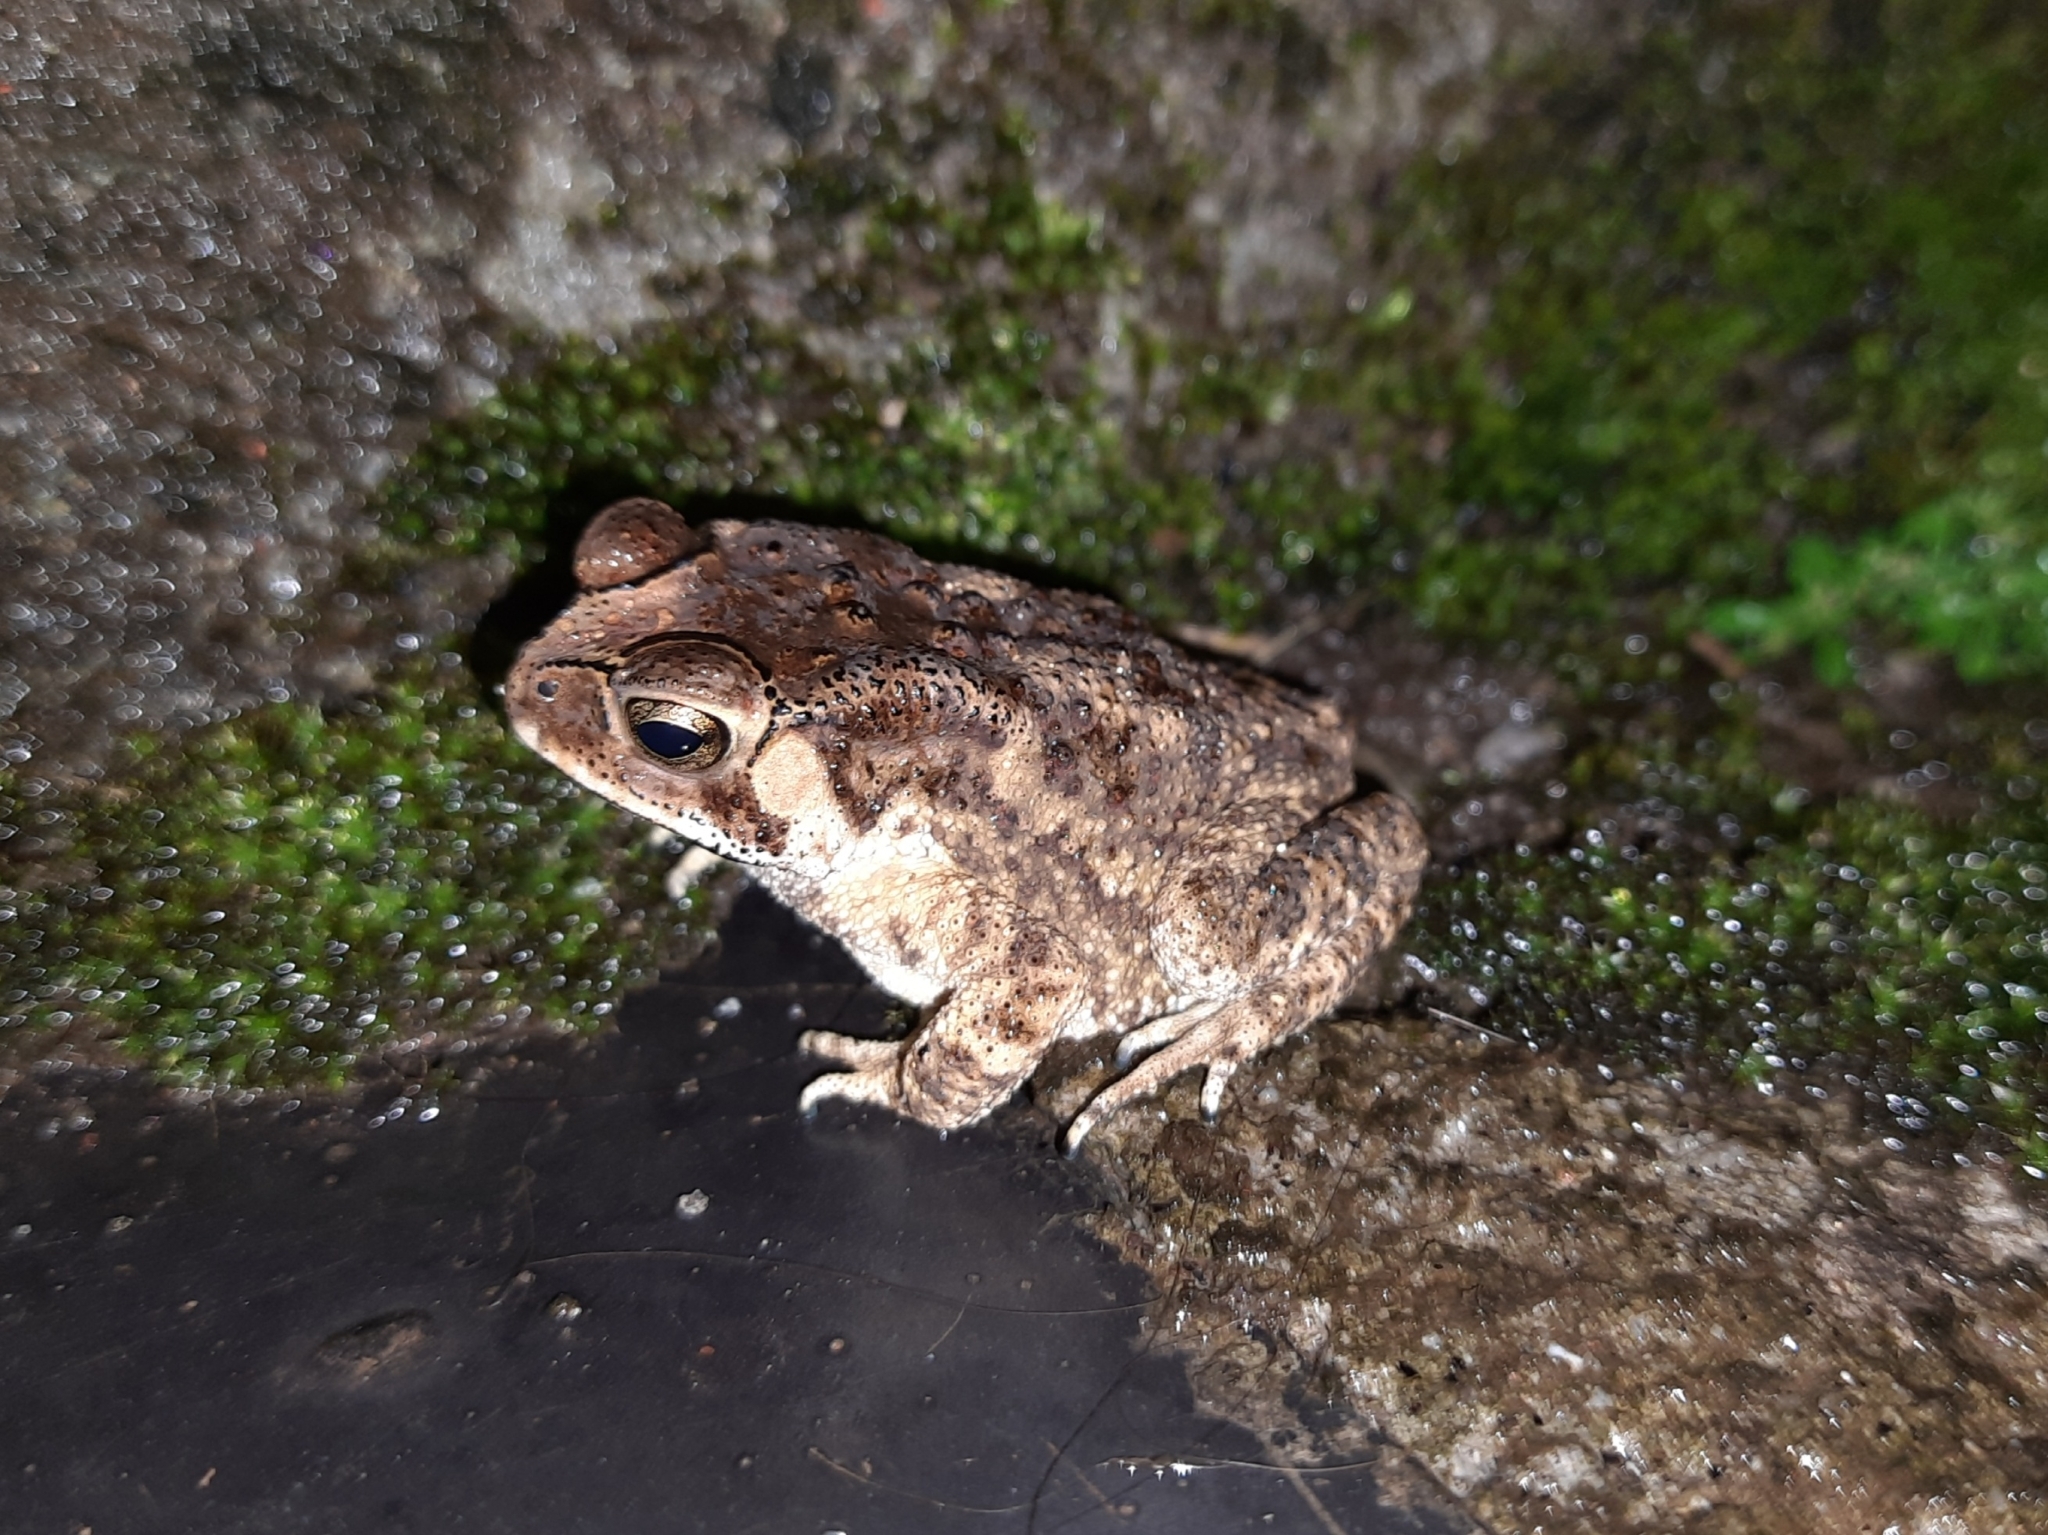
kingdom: Animalia
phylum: Chordata
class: Amphibia
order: Anura
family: Bufonidae
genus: Duttaphrynus
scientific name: Duttaphrynus melanostictus
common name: Common sunda toad
